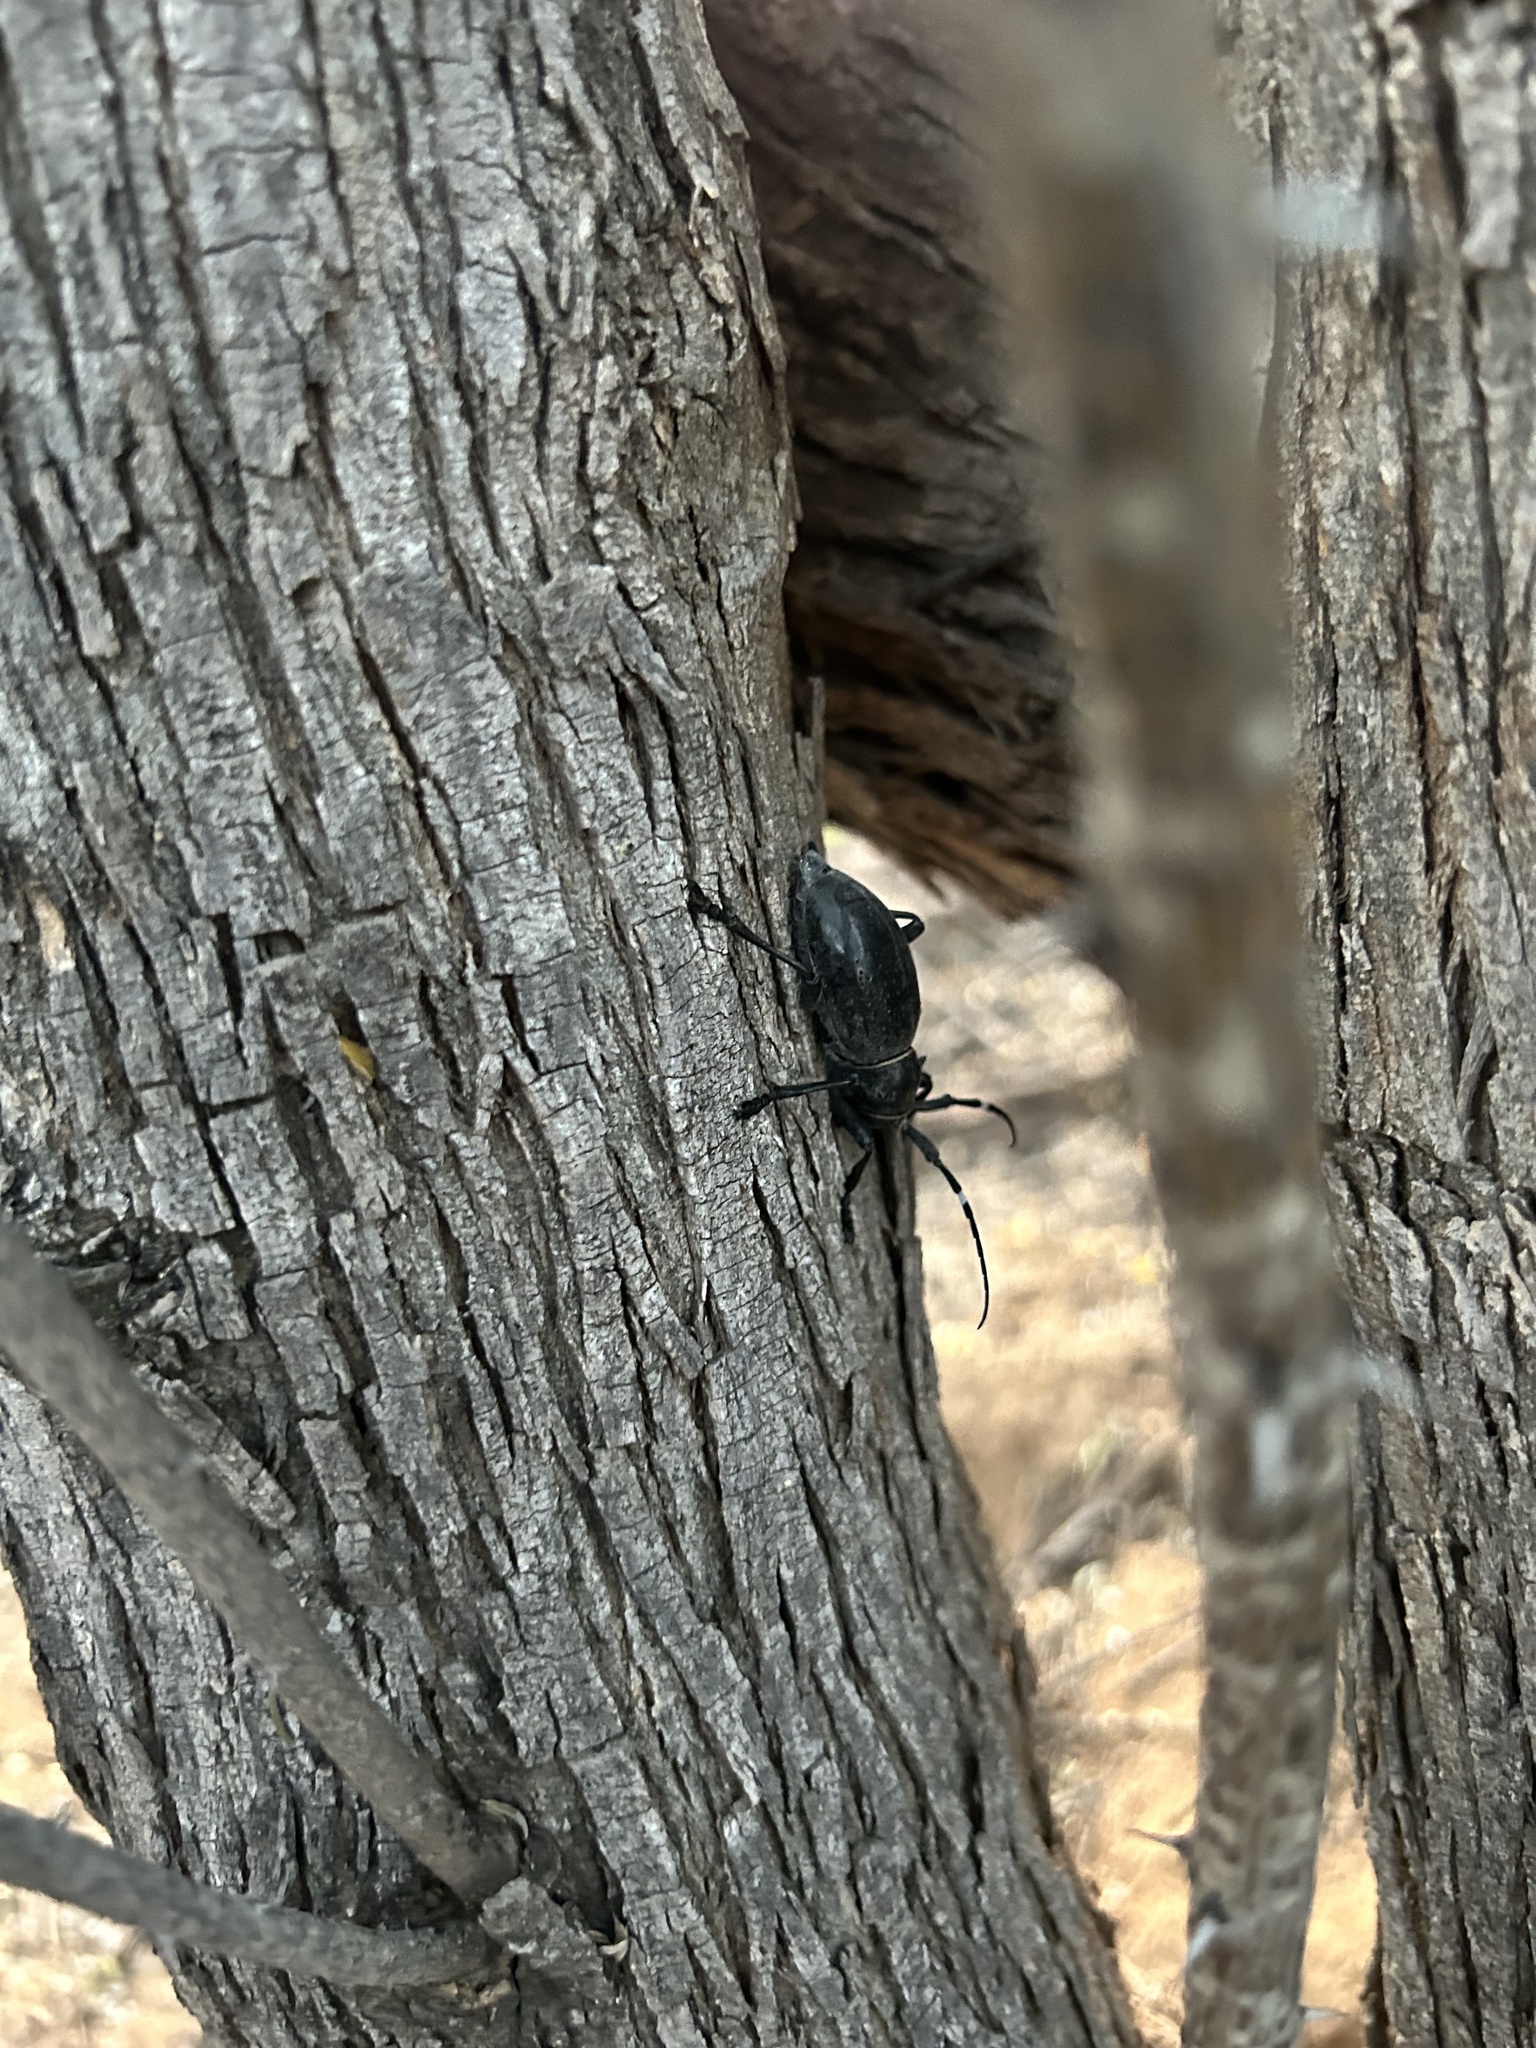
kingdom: Animalia
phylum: Arthropoda
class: Insecta
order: Coleoptera
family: Cerambycidae
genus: Moneilema
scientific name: Moneilema gigas
